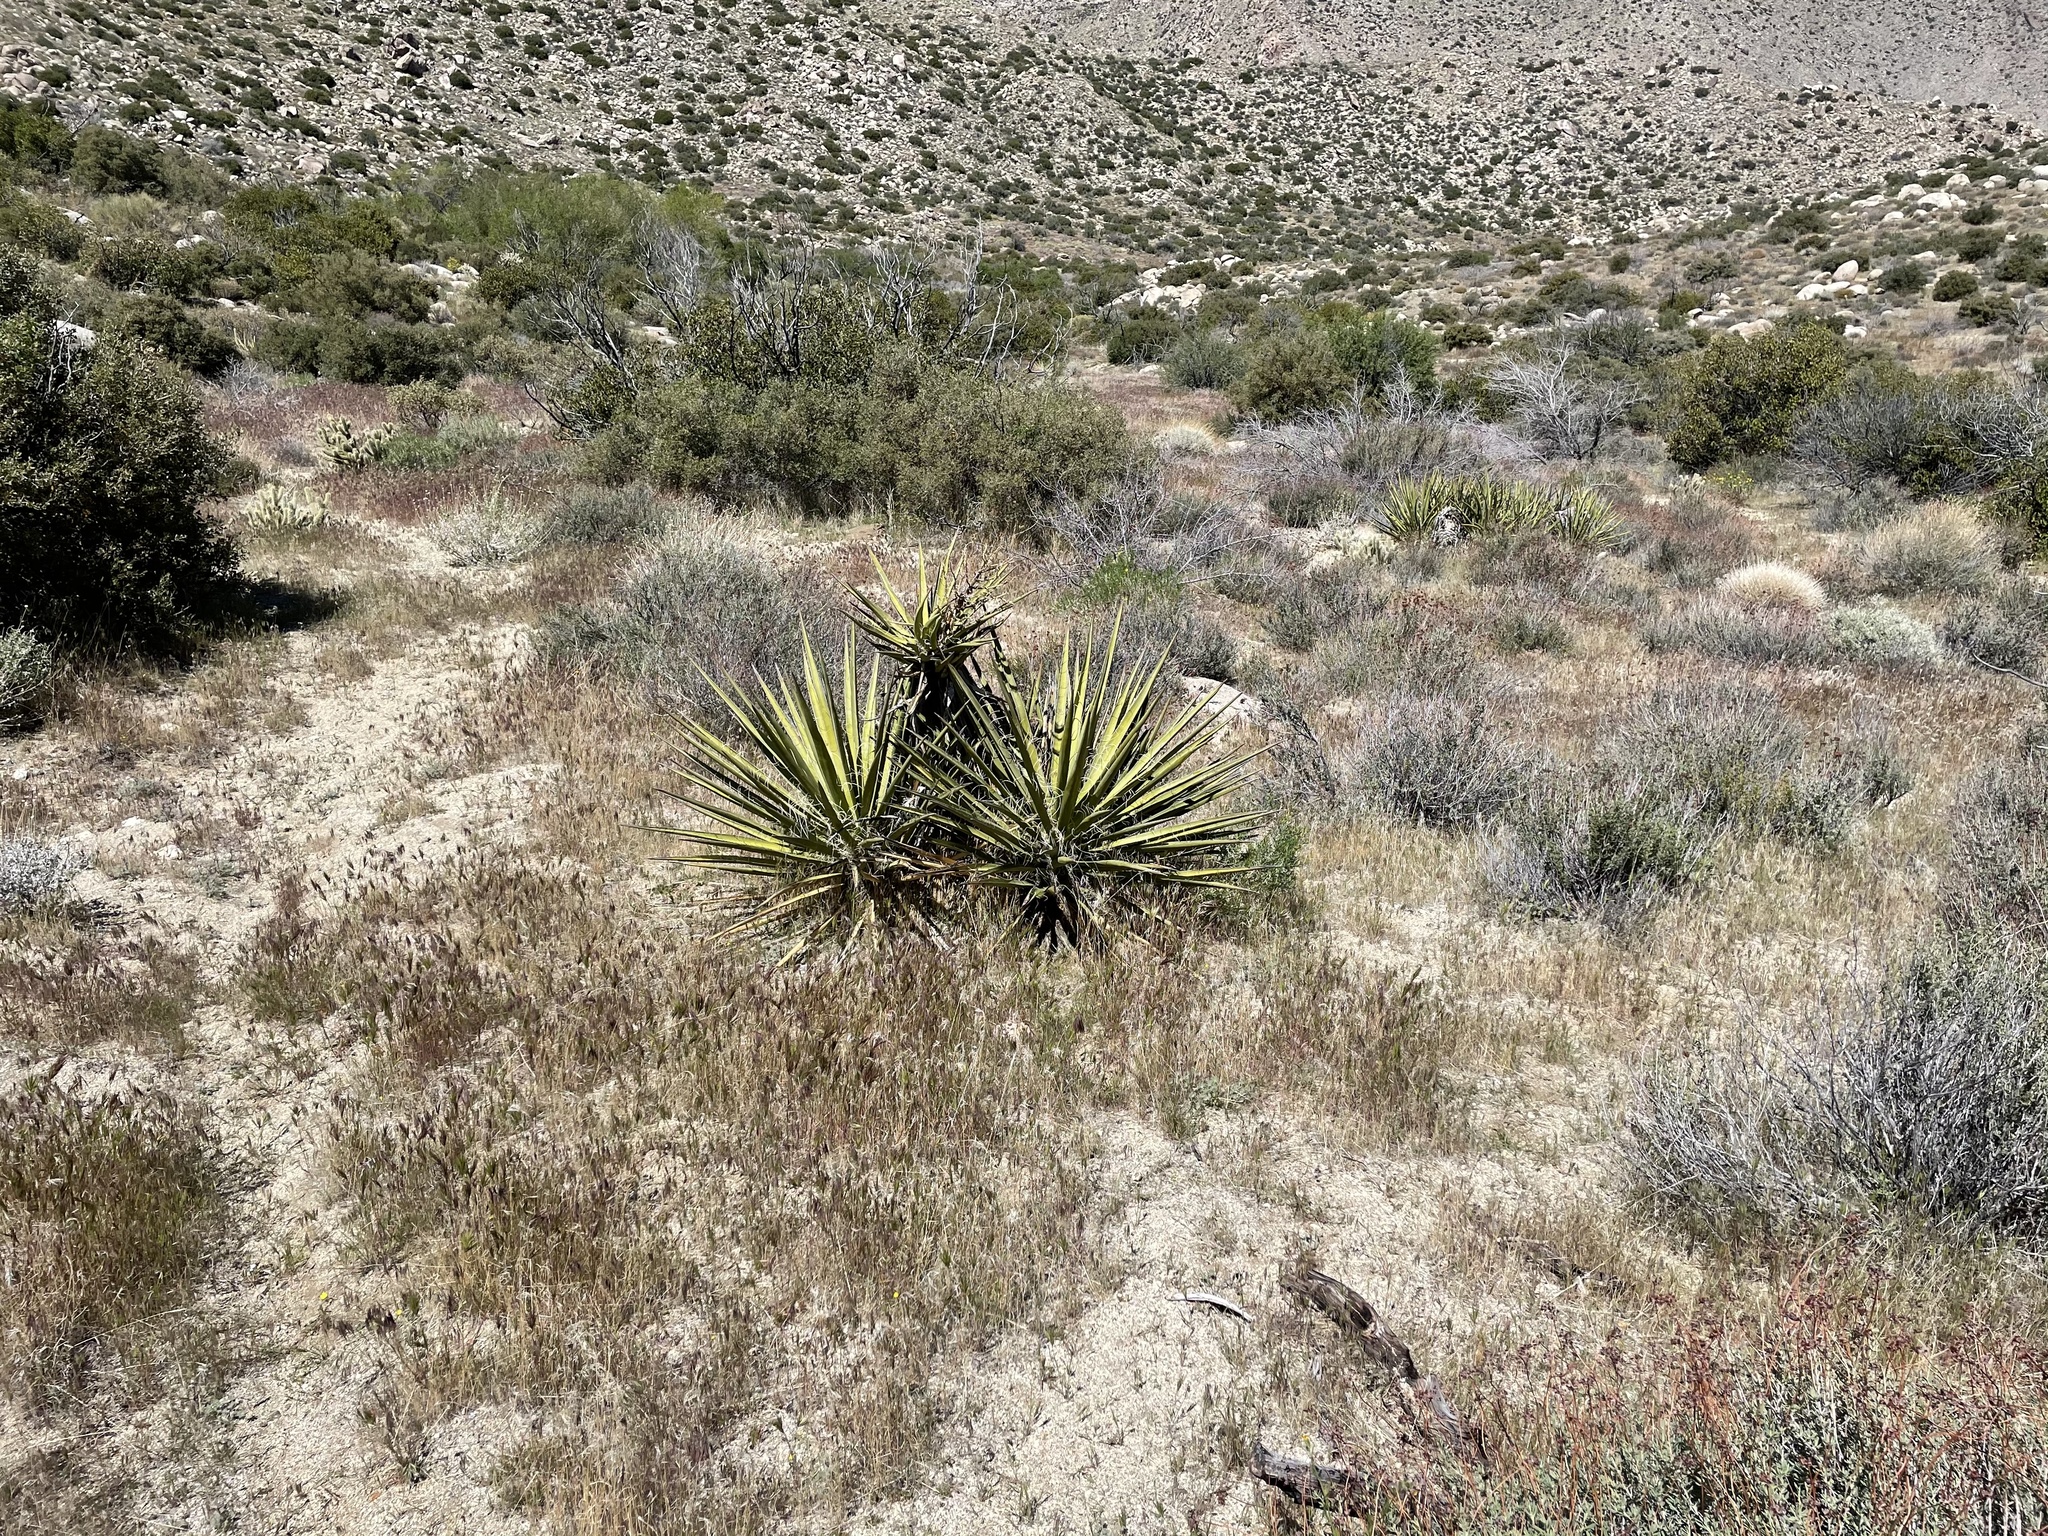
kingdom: Plantae
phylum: Tracheophyta
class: Liliopsida
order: Asparagales
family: Asparagaceae
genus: Yucca
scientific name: Yucca schidigera
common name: Mojave yucca
